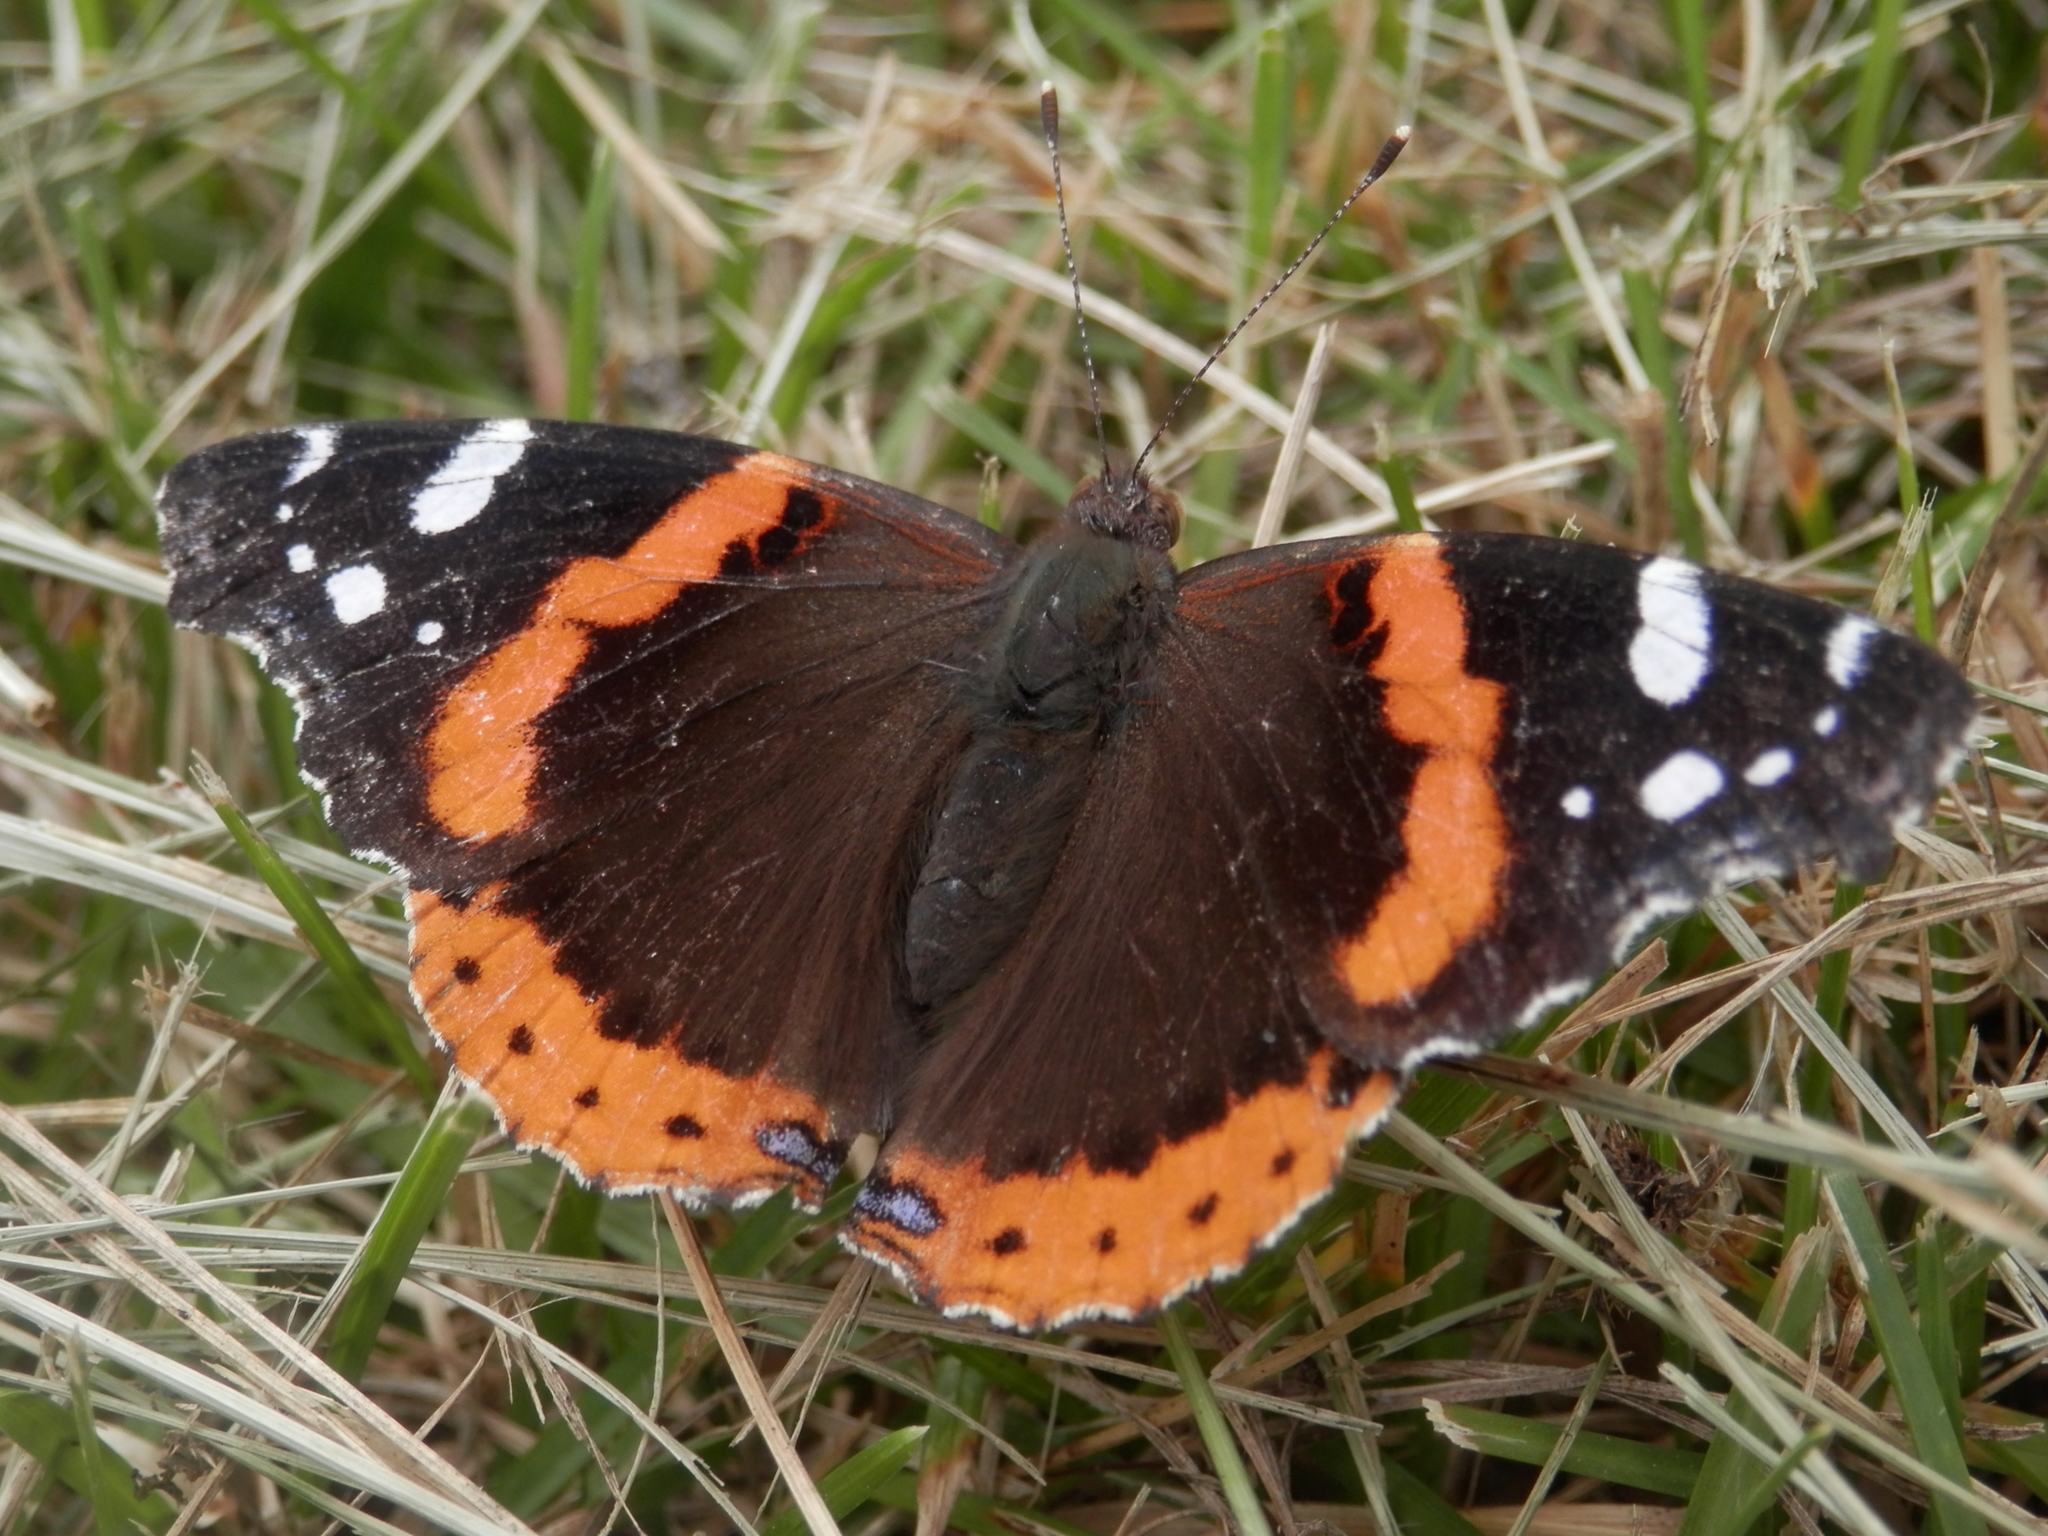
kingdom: Animalia
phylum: Arthropoda
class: Insecta
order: Lepidoptera
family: Nymphalidae
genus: Vanessa
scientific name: Vanessa atalanta
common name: Red admiral
